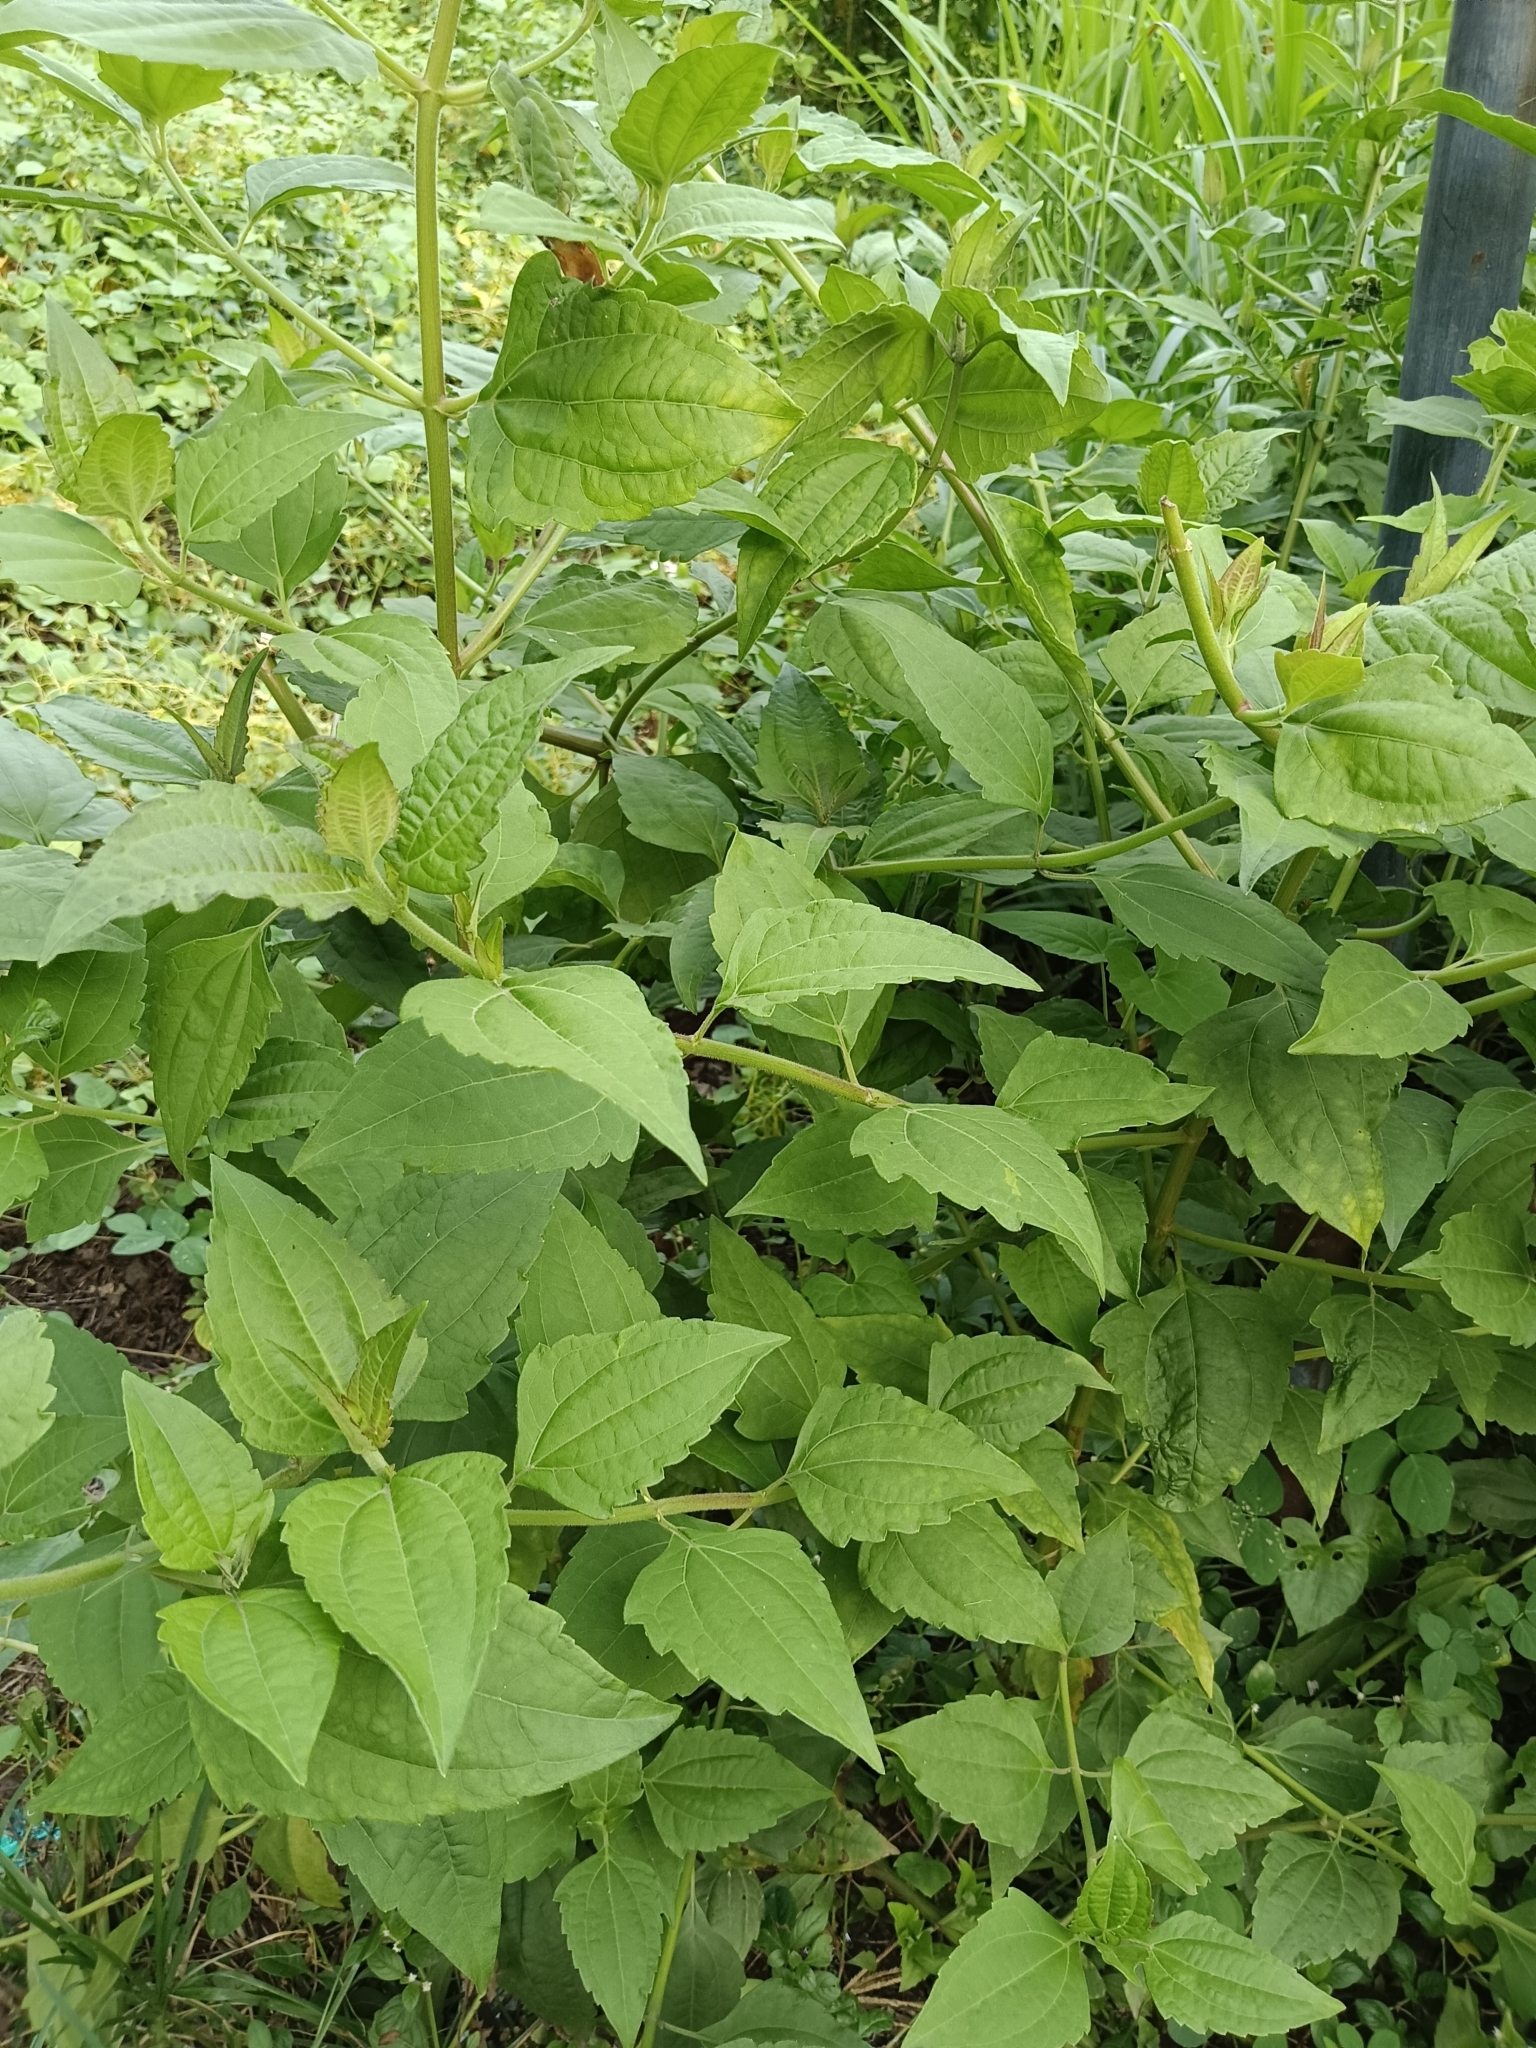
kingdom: Plantae
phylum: Tracheophyta
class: Magnoliopsida
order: Asterales
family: Asteraceae
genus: Chromolaena
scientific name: Chromolaena odorata
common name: Siamweed
